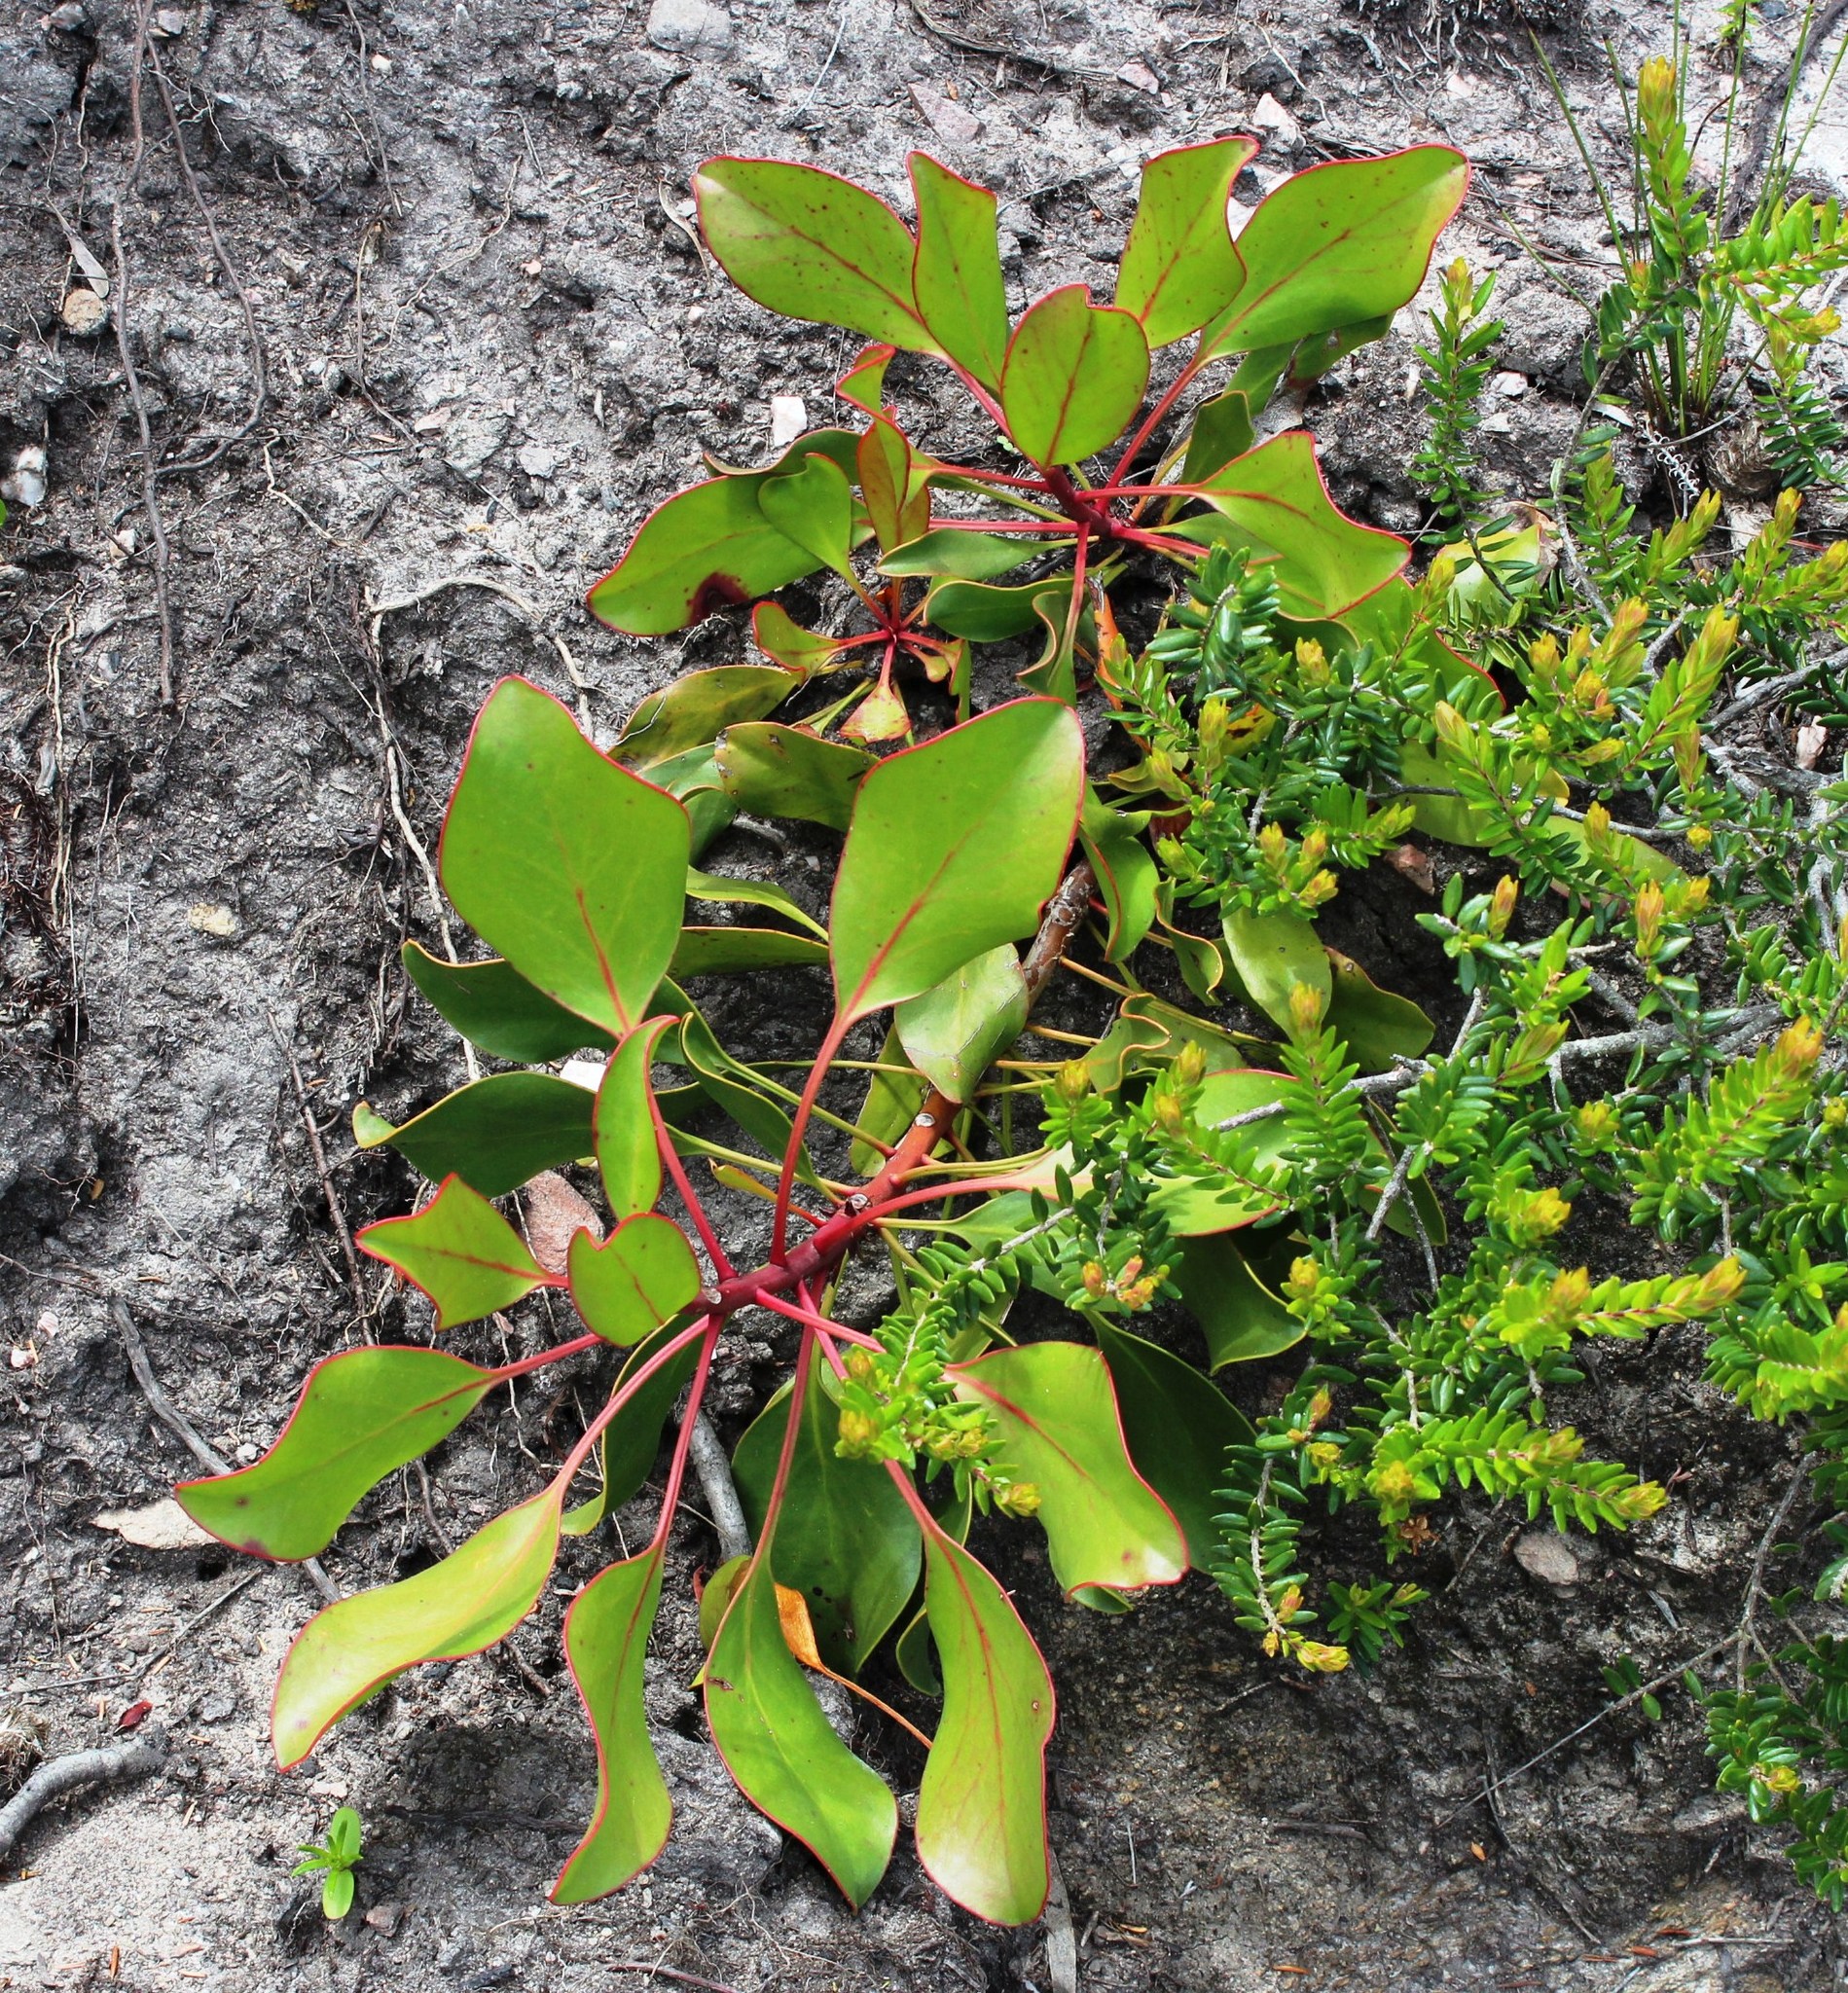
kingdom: Plantae
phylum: Tracheophyta
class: Magnoliopsida
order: Proteales
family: Proteaceae
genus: Protea
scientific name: Protea cynaroides
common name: King protea
